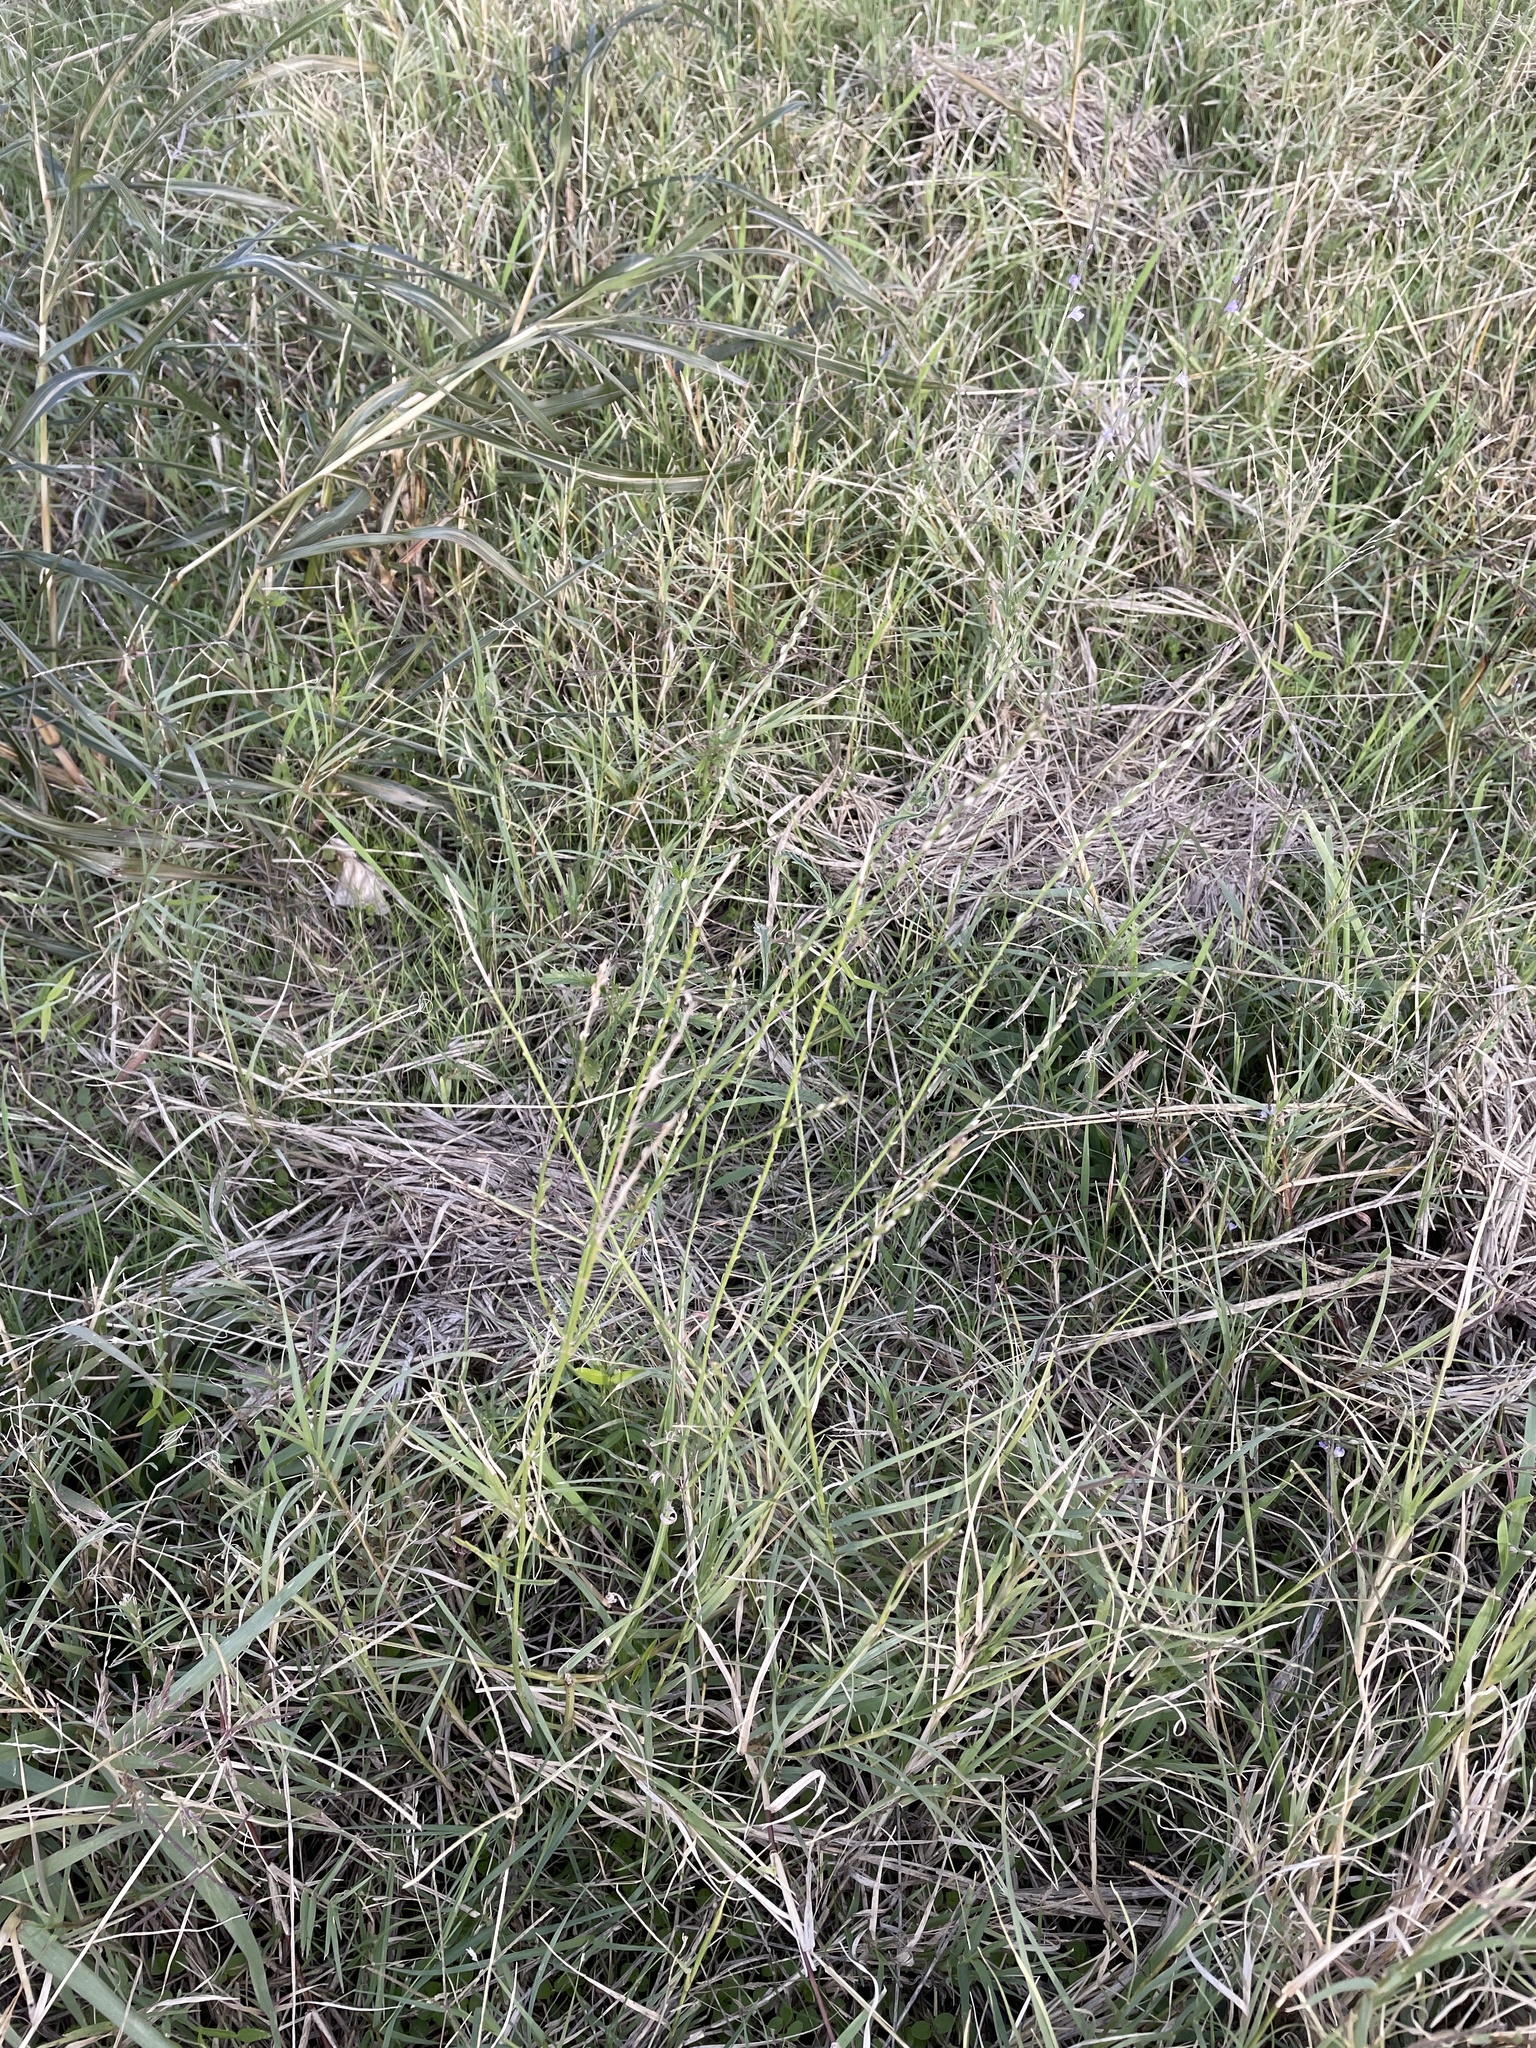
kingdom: Plantae
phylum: Tracheophyta
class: Magnoliopsida
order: Lamiales
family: Verbenaceae
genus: Verbena
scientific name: Verbena halei
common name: Texas vervain
